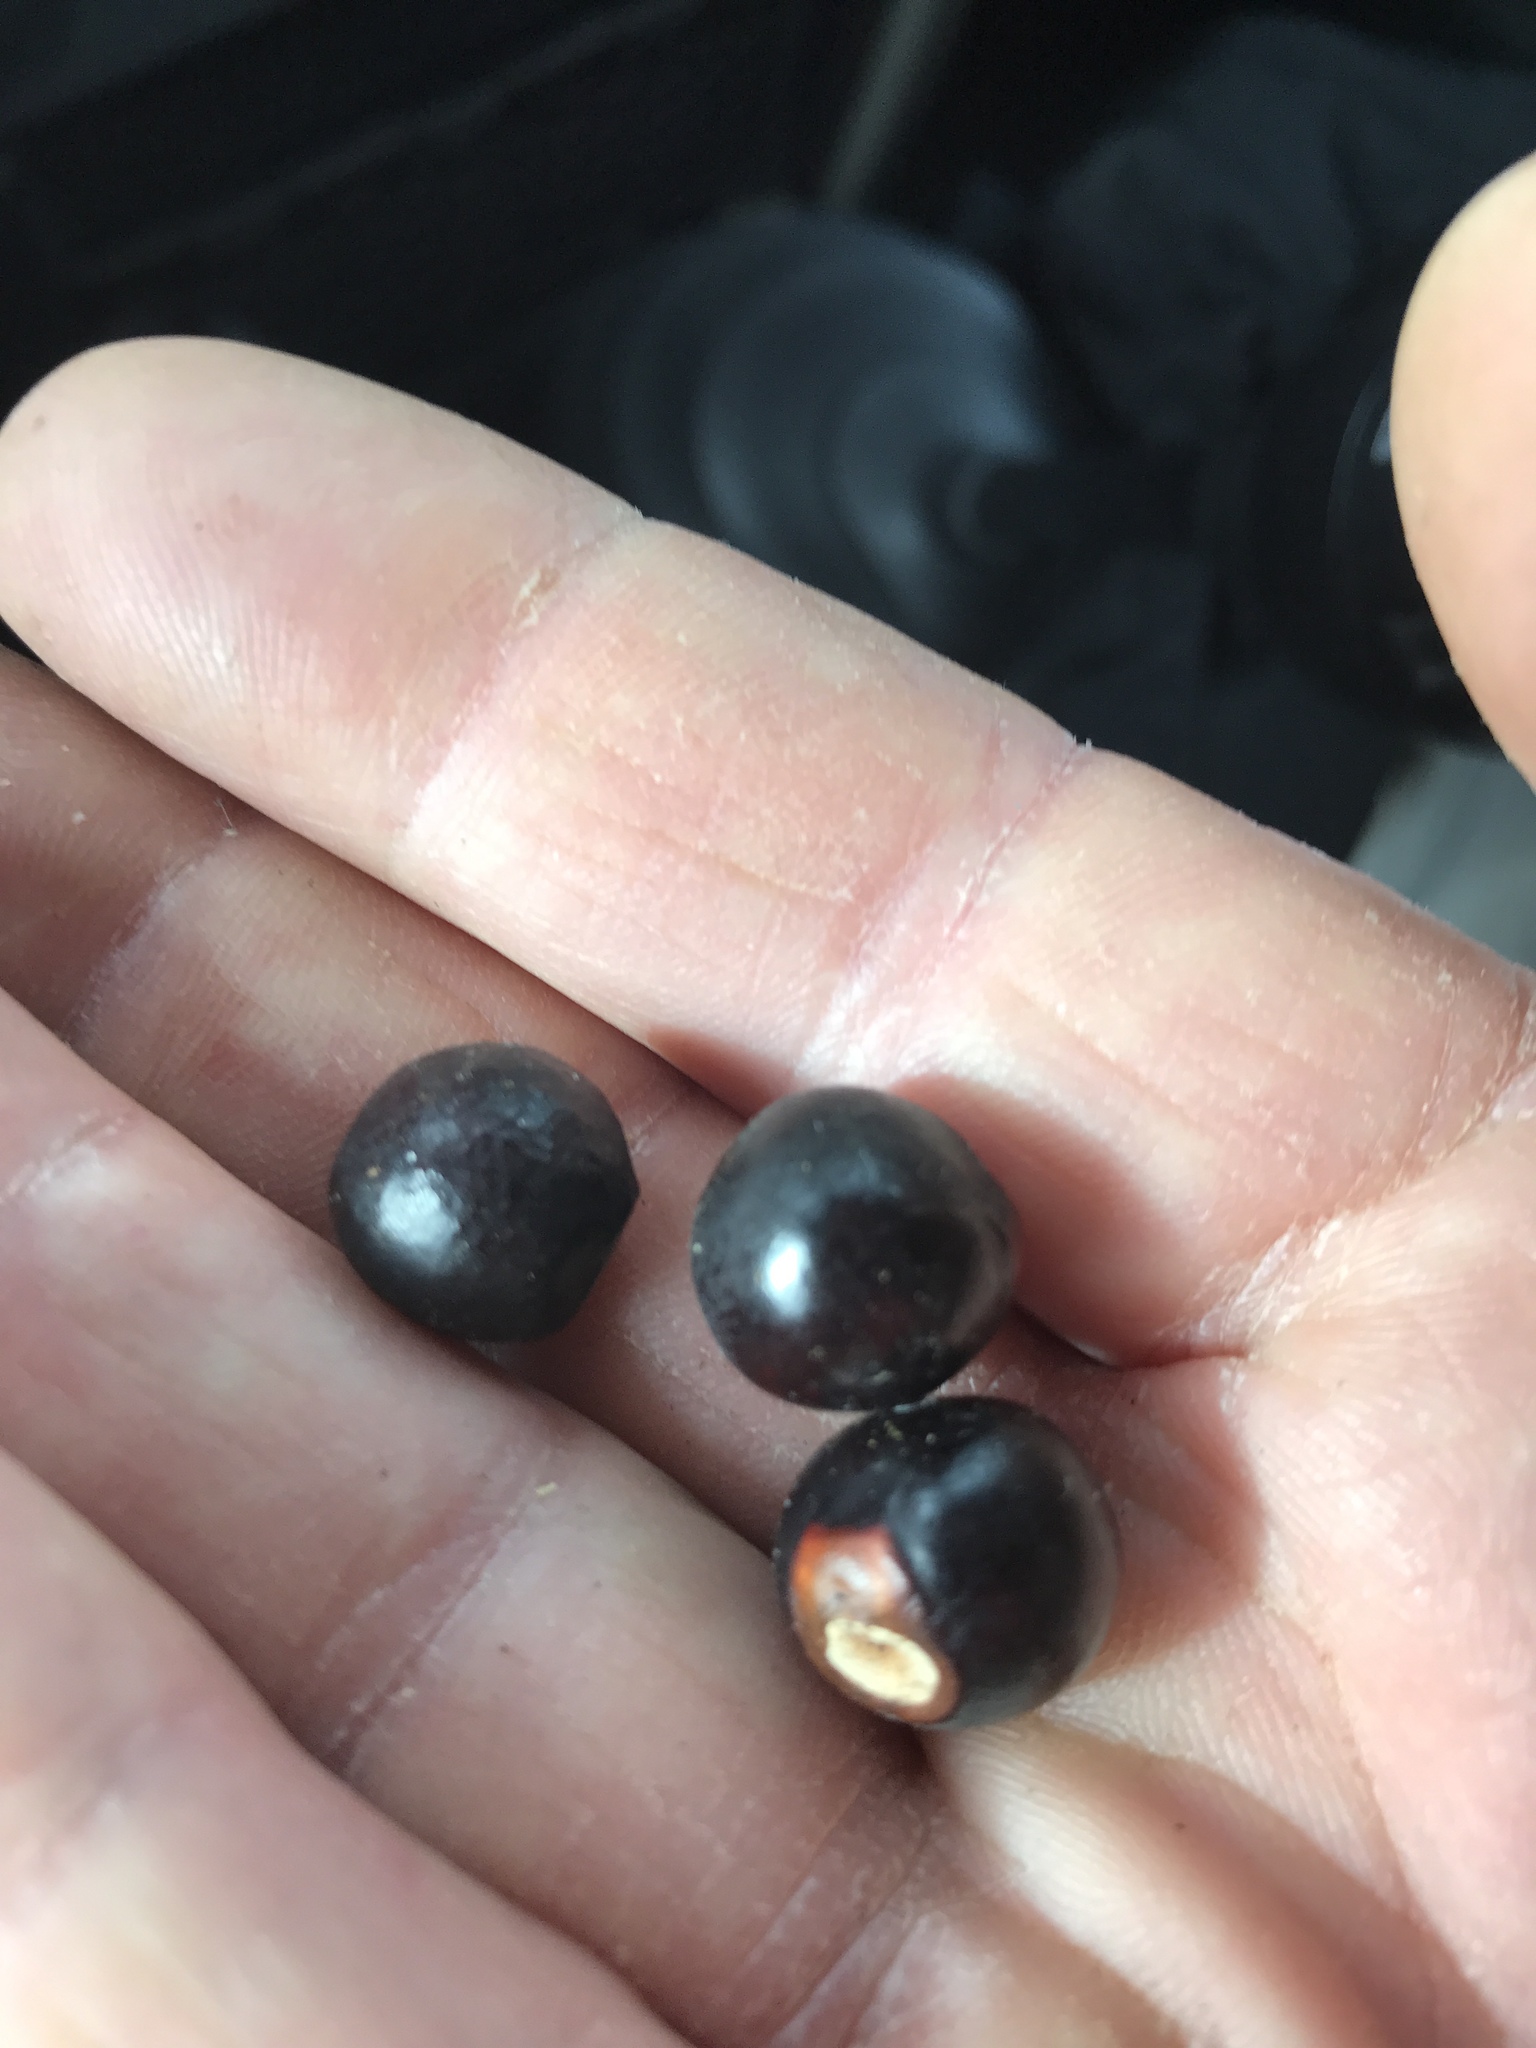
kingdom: Plantae
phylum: Tracheophyta
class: Magnoliopsida
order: Sapindales
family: Sapindaceae
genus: Ungnadia
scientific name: Ungnadia speciosa
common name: Texas-buckeye
